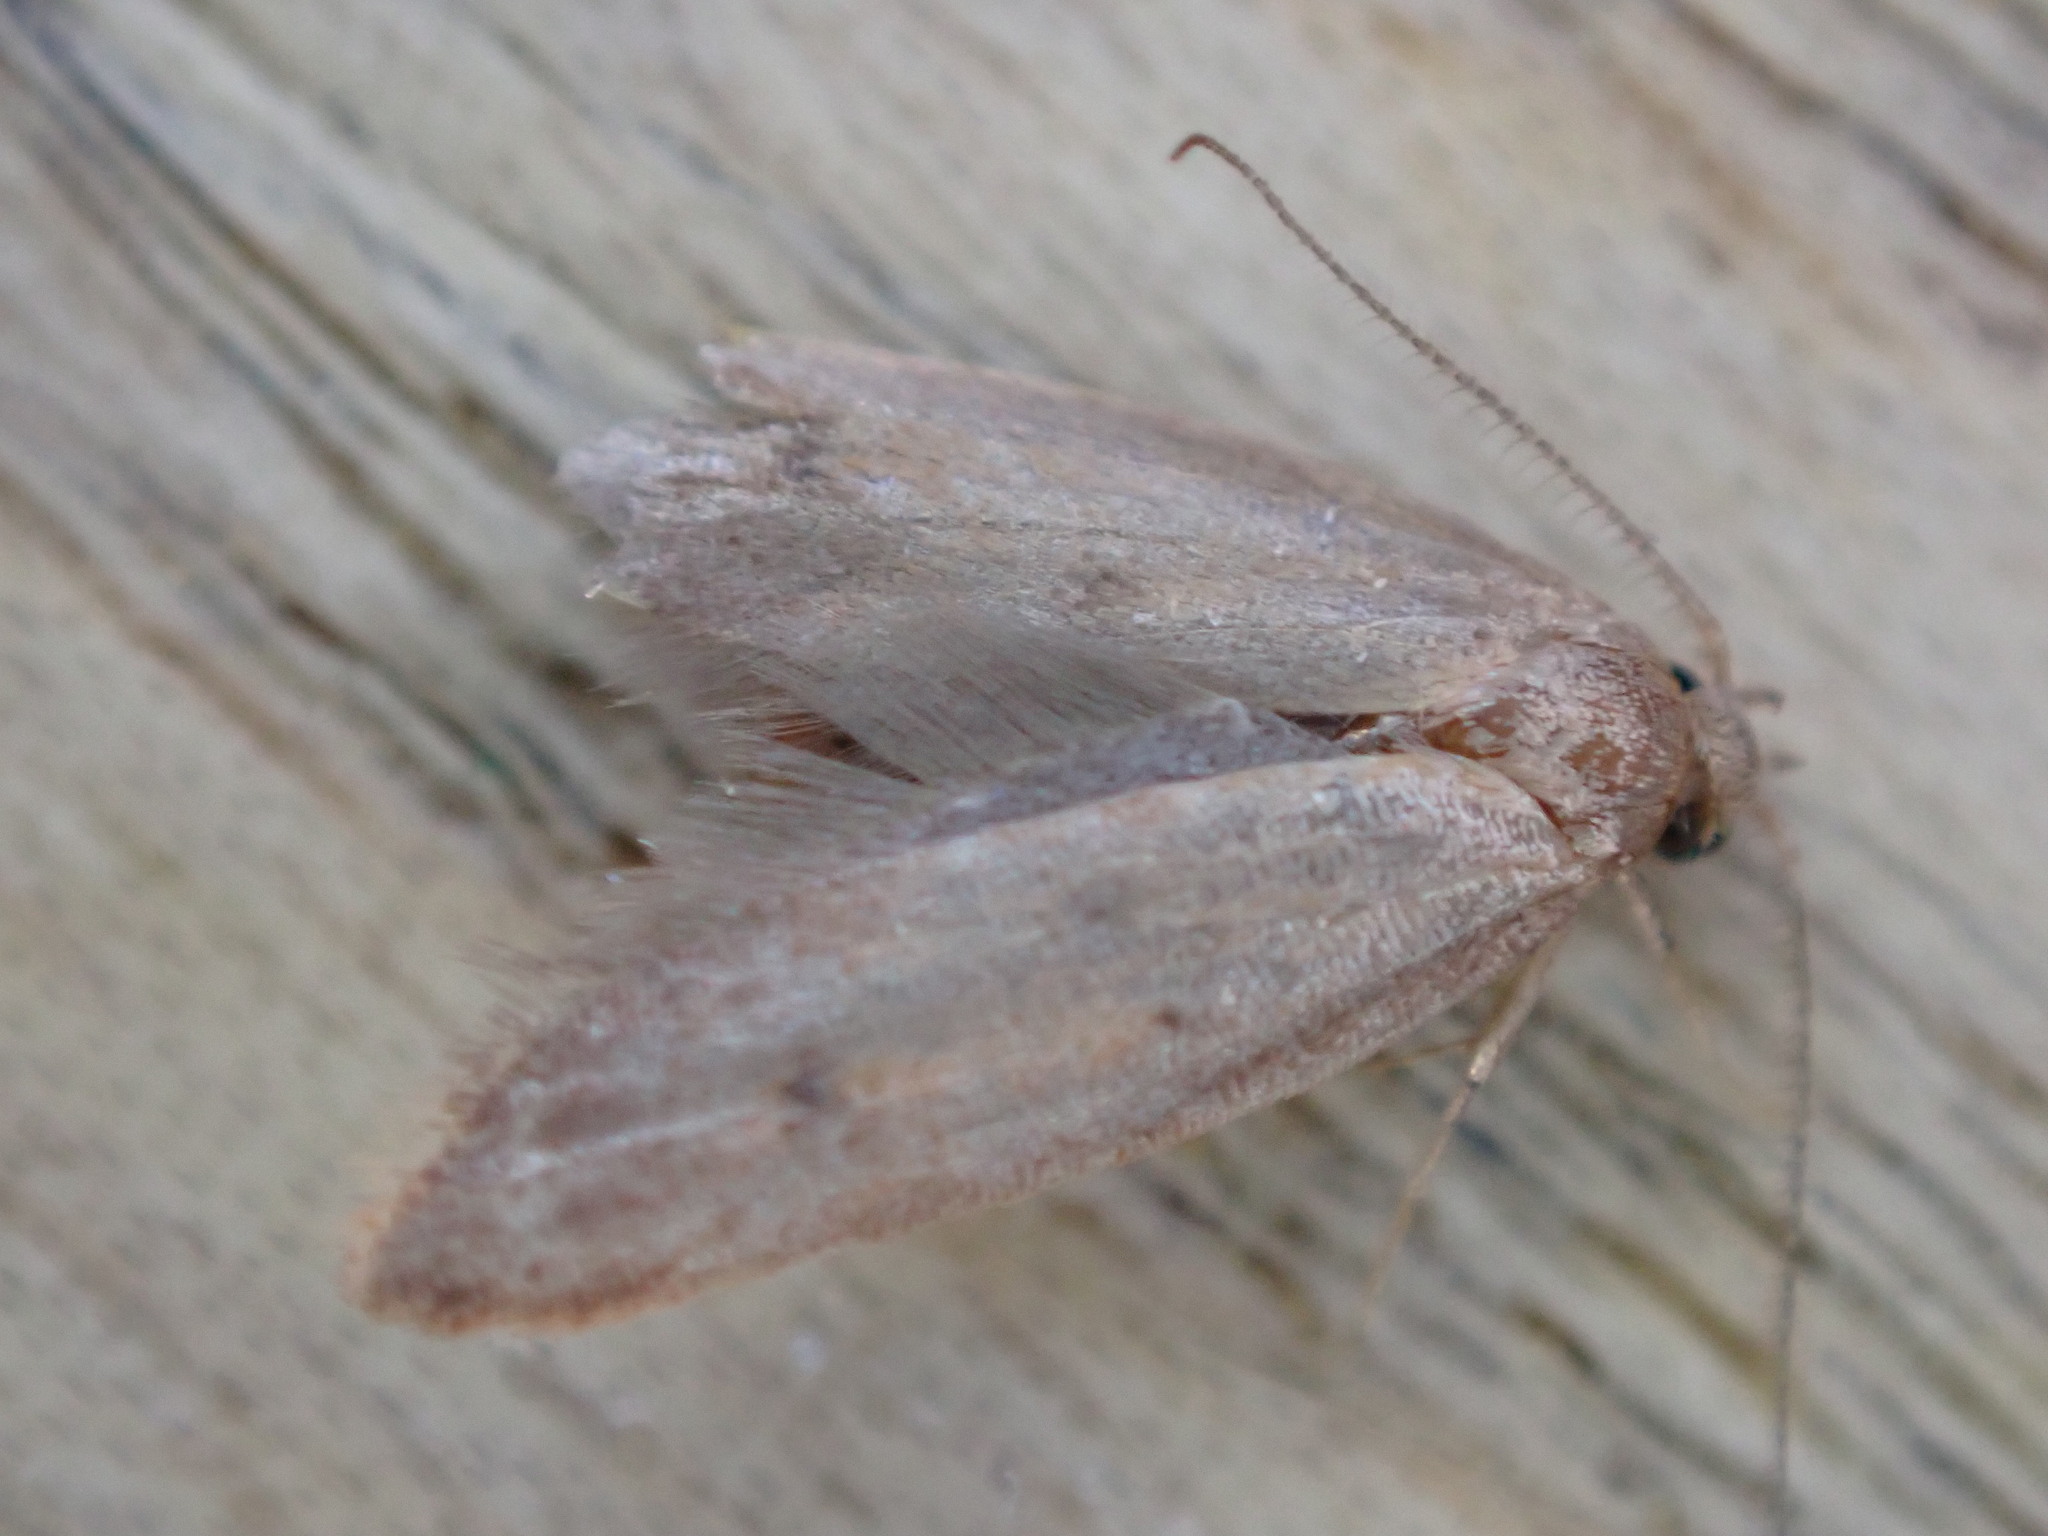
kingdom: Animalia
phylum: Arthropoda
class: Insecta
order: Lepidoptera
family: Oecophoridae
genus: Tachystola
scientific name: Tachystola acroxantha
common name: Ruddy streak
